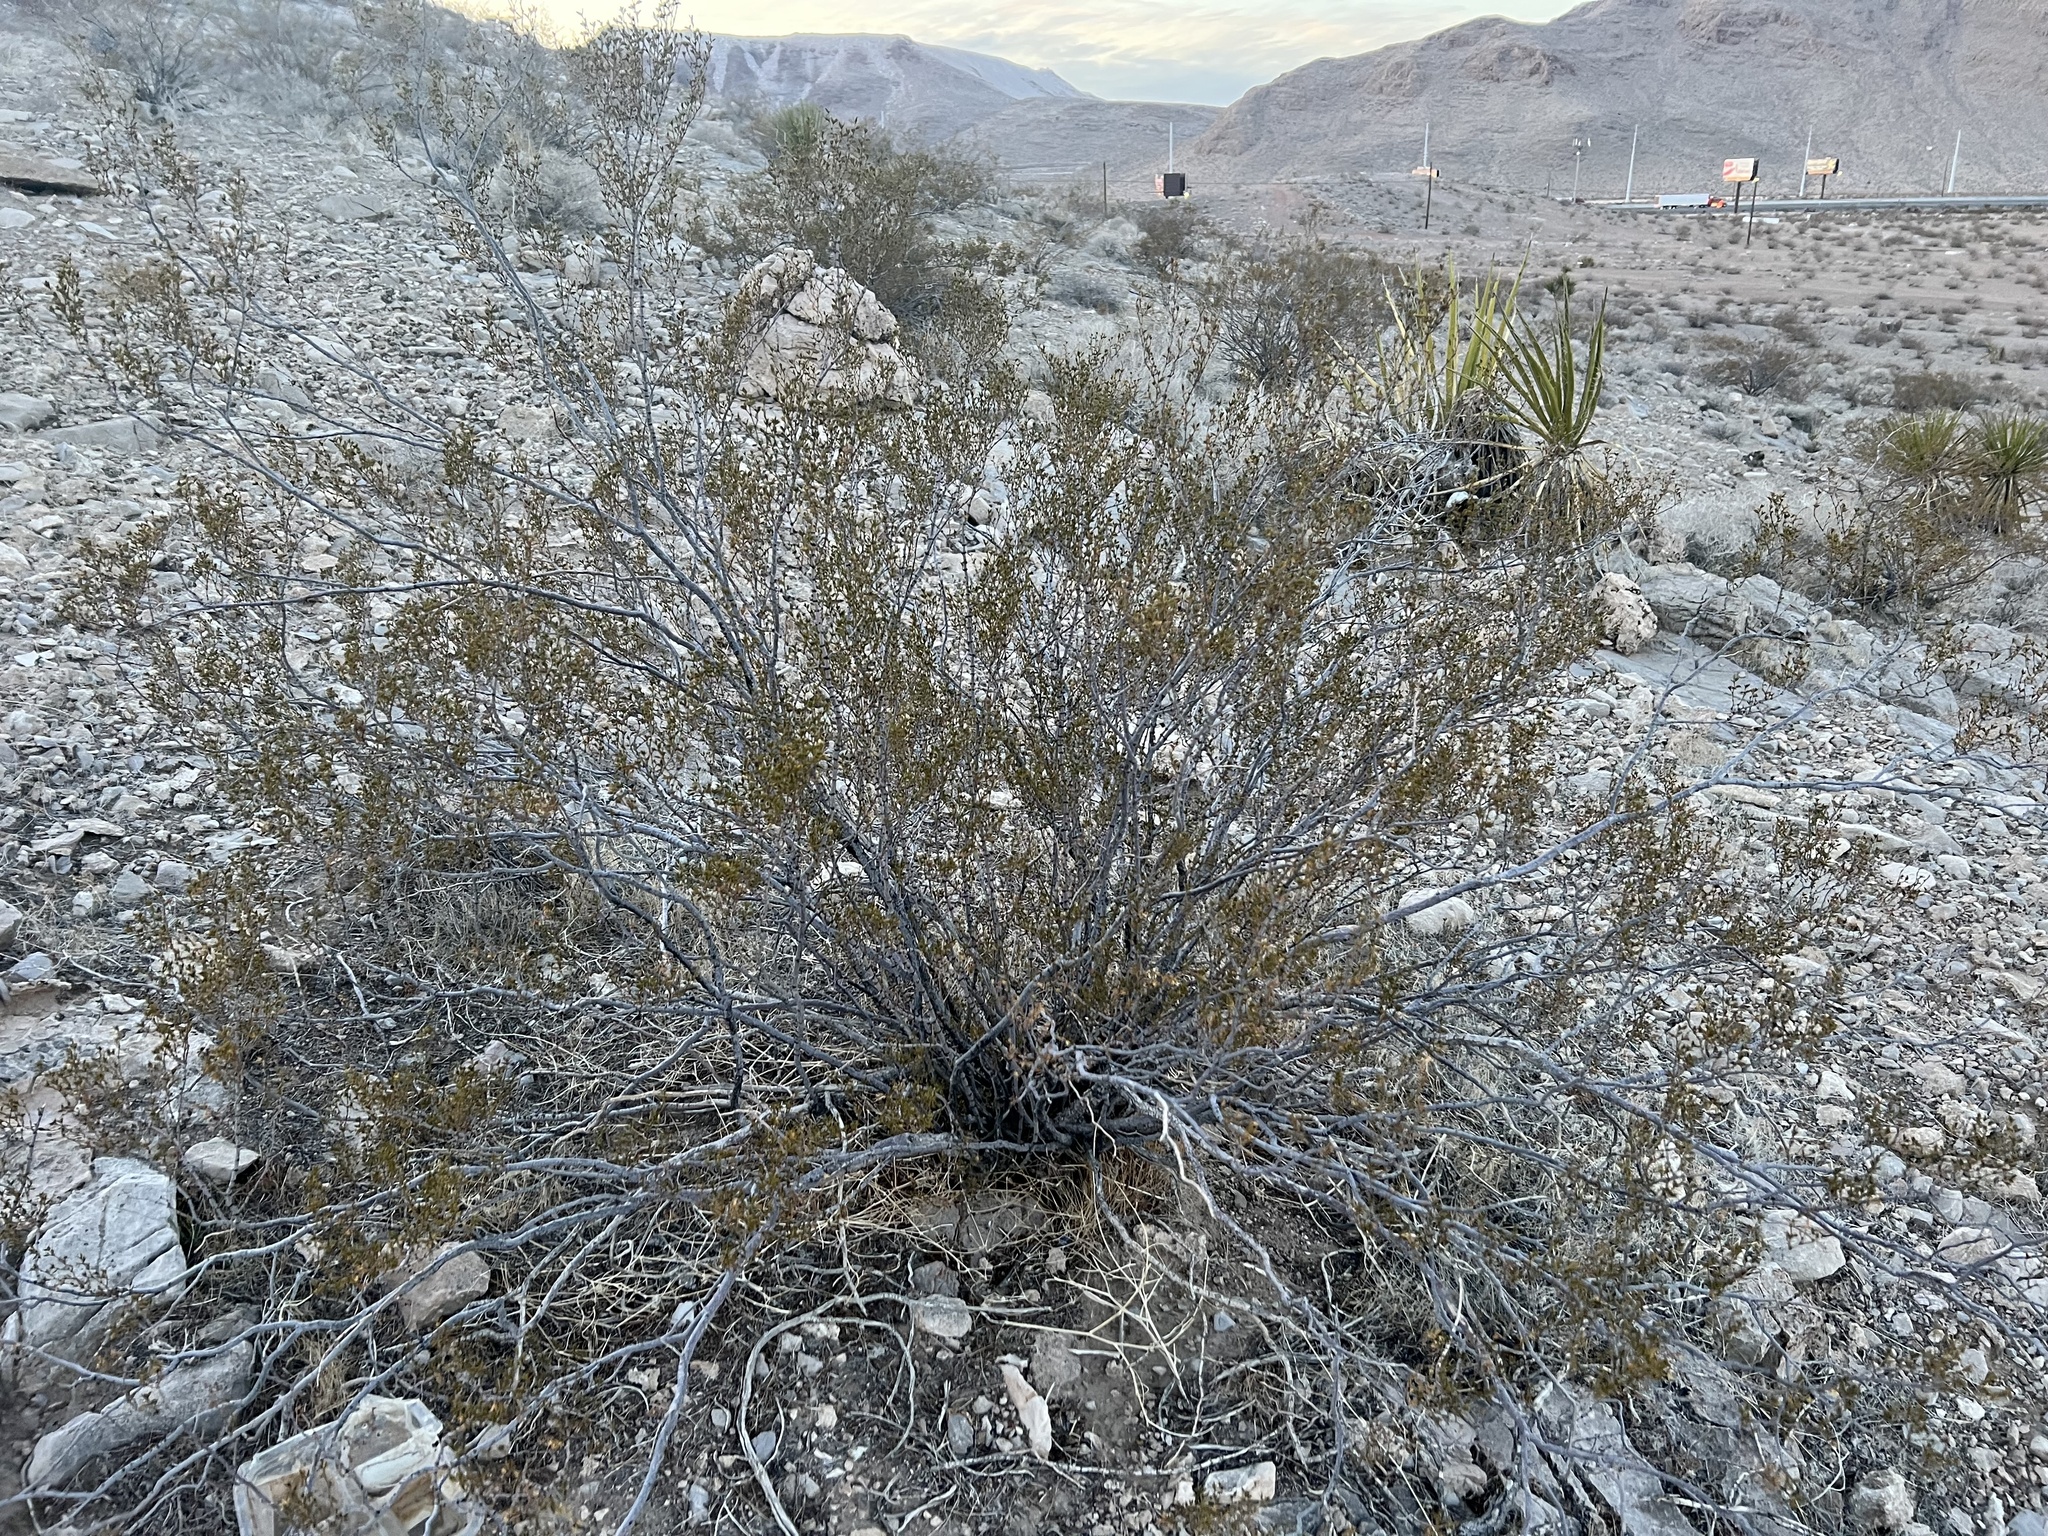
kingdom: Plantae
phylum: Tracheophyta
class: Magnoliopsida
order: Zygophyllales
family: Zygophyllaceae
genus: Larrea
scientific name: Larrea tridentata
